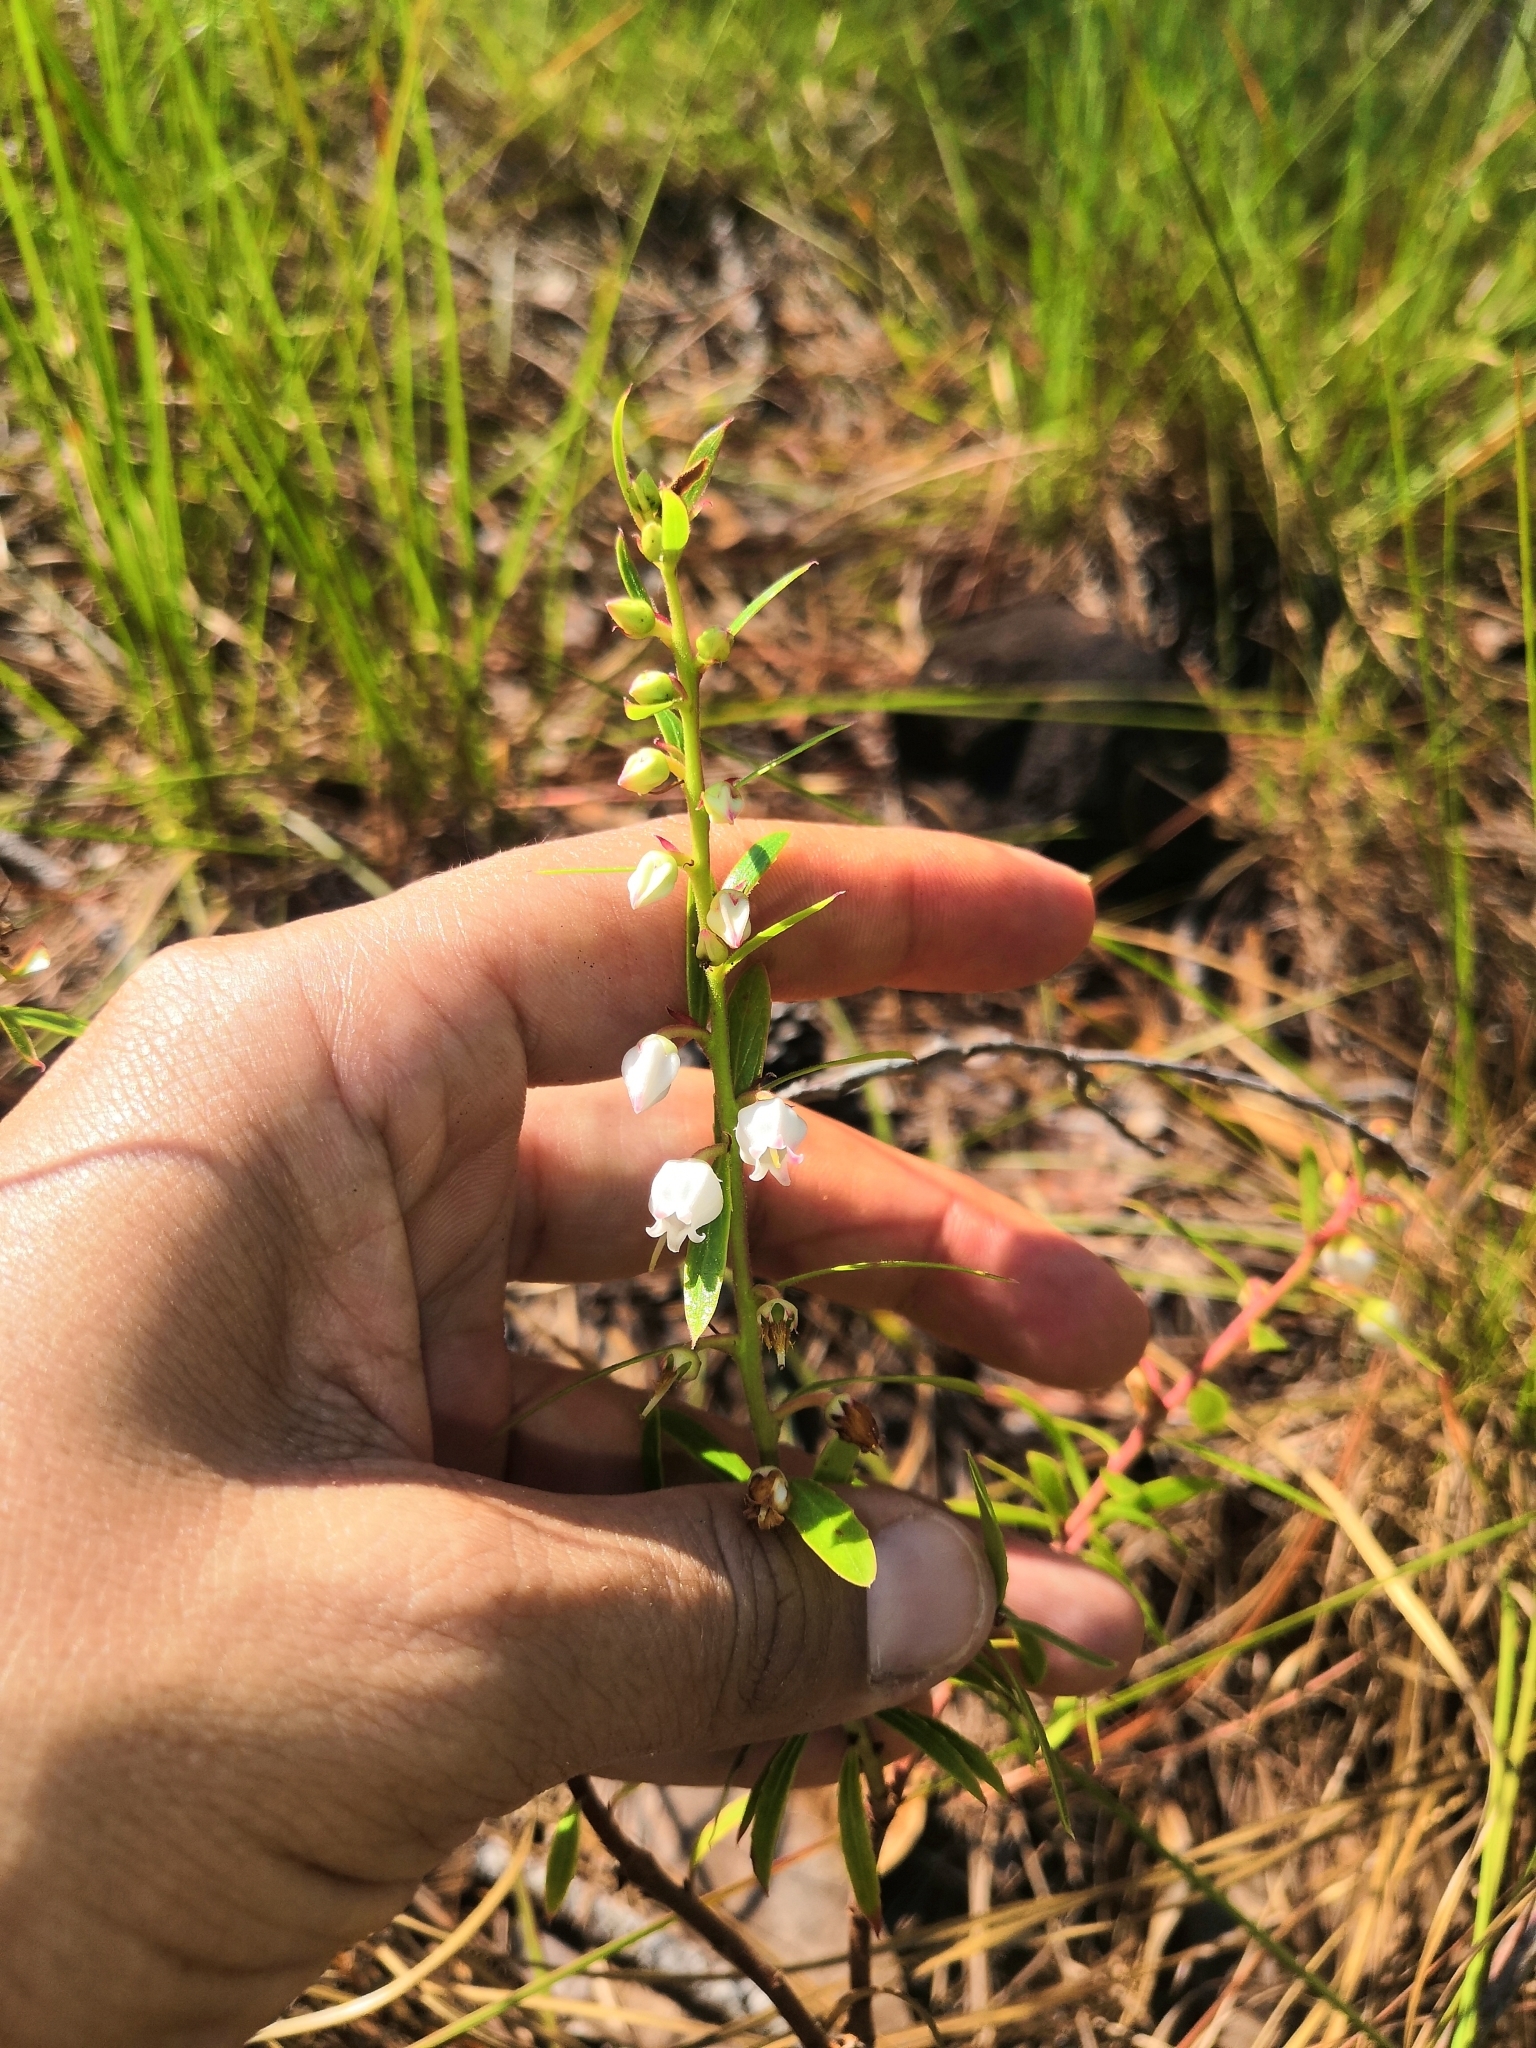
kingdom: Plantae
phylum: Tracheophyta
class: Magnoliopsida
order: Ericales
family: Ericaceae
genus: Vaccinium
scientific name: Vaccinium stenophyllum
